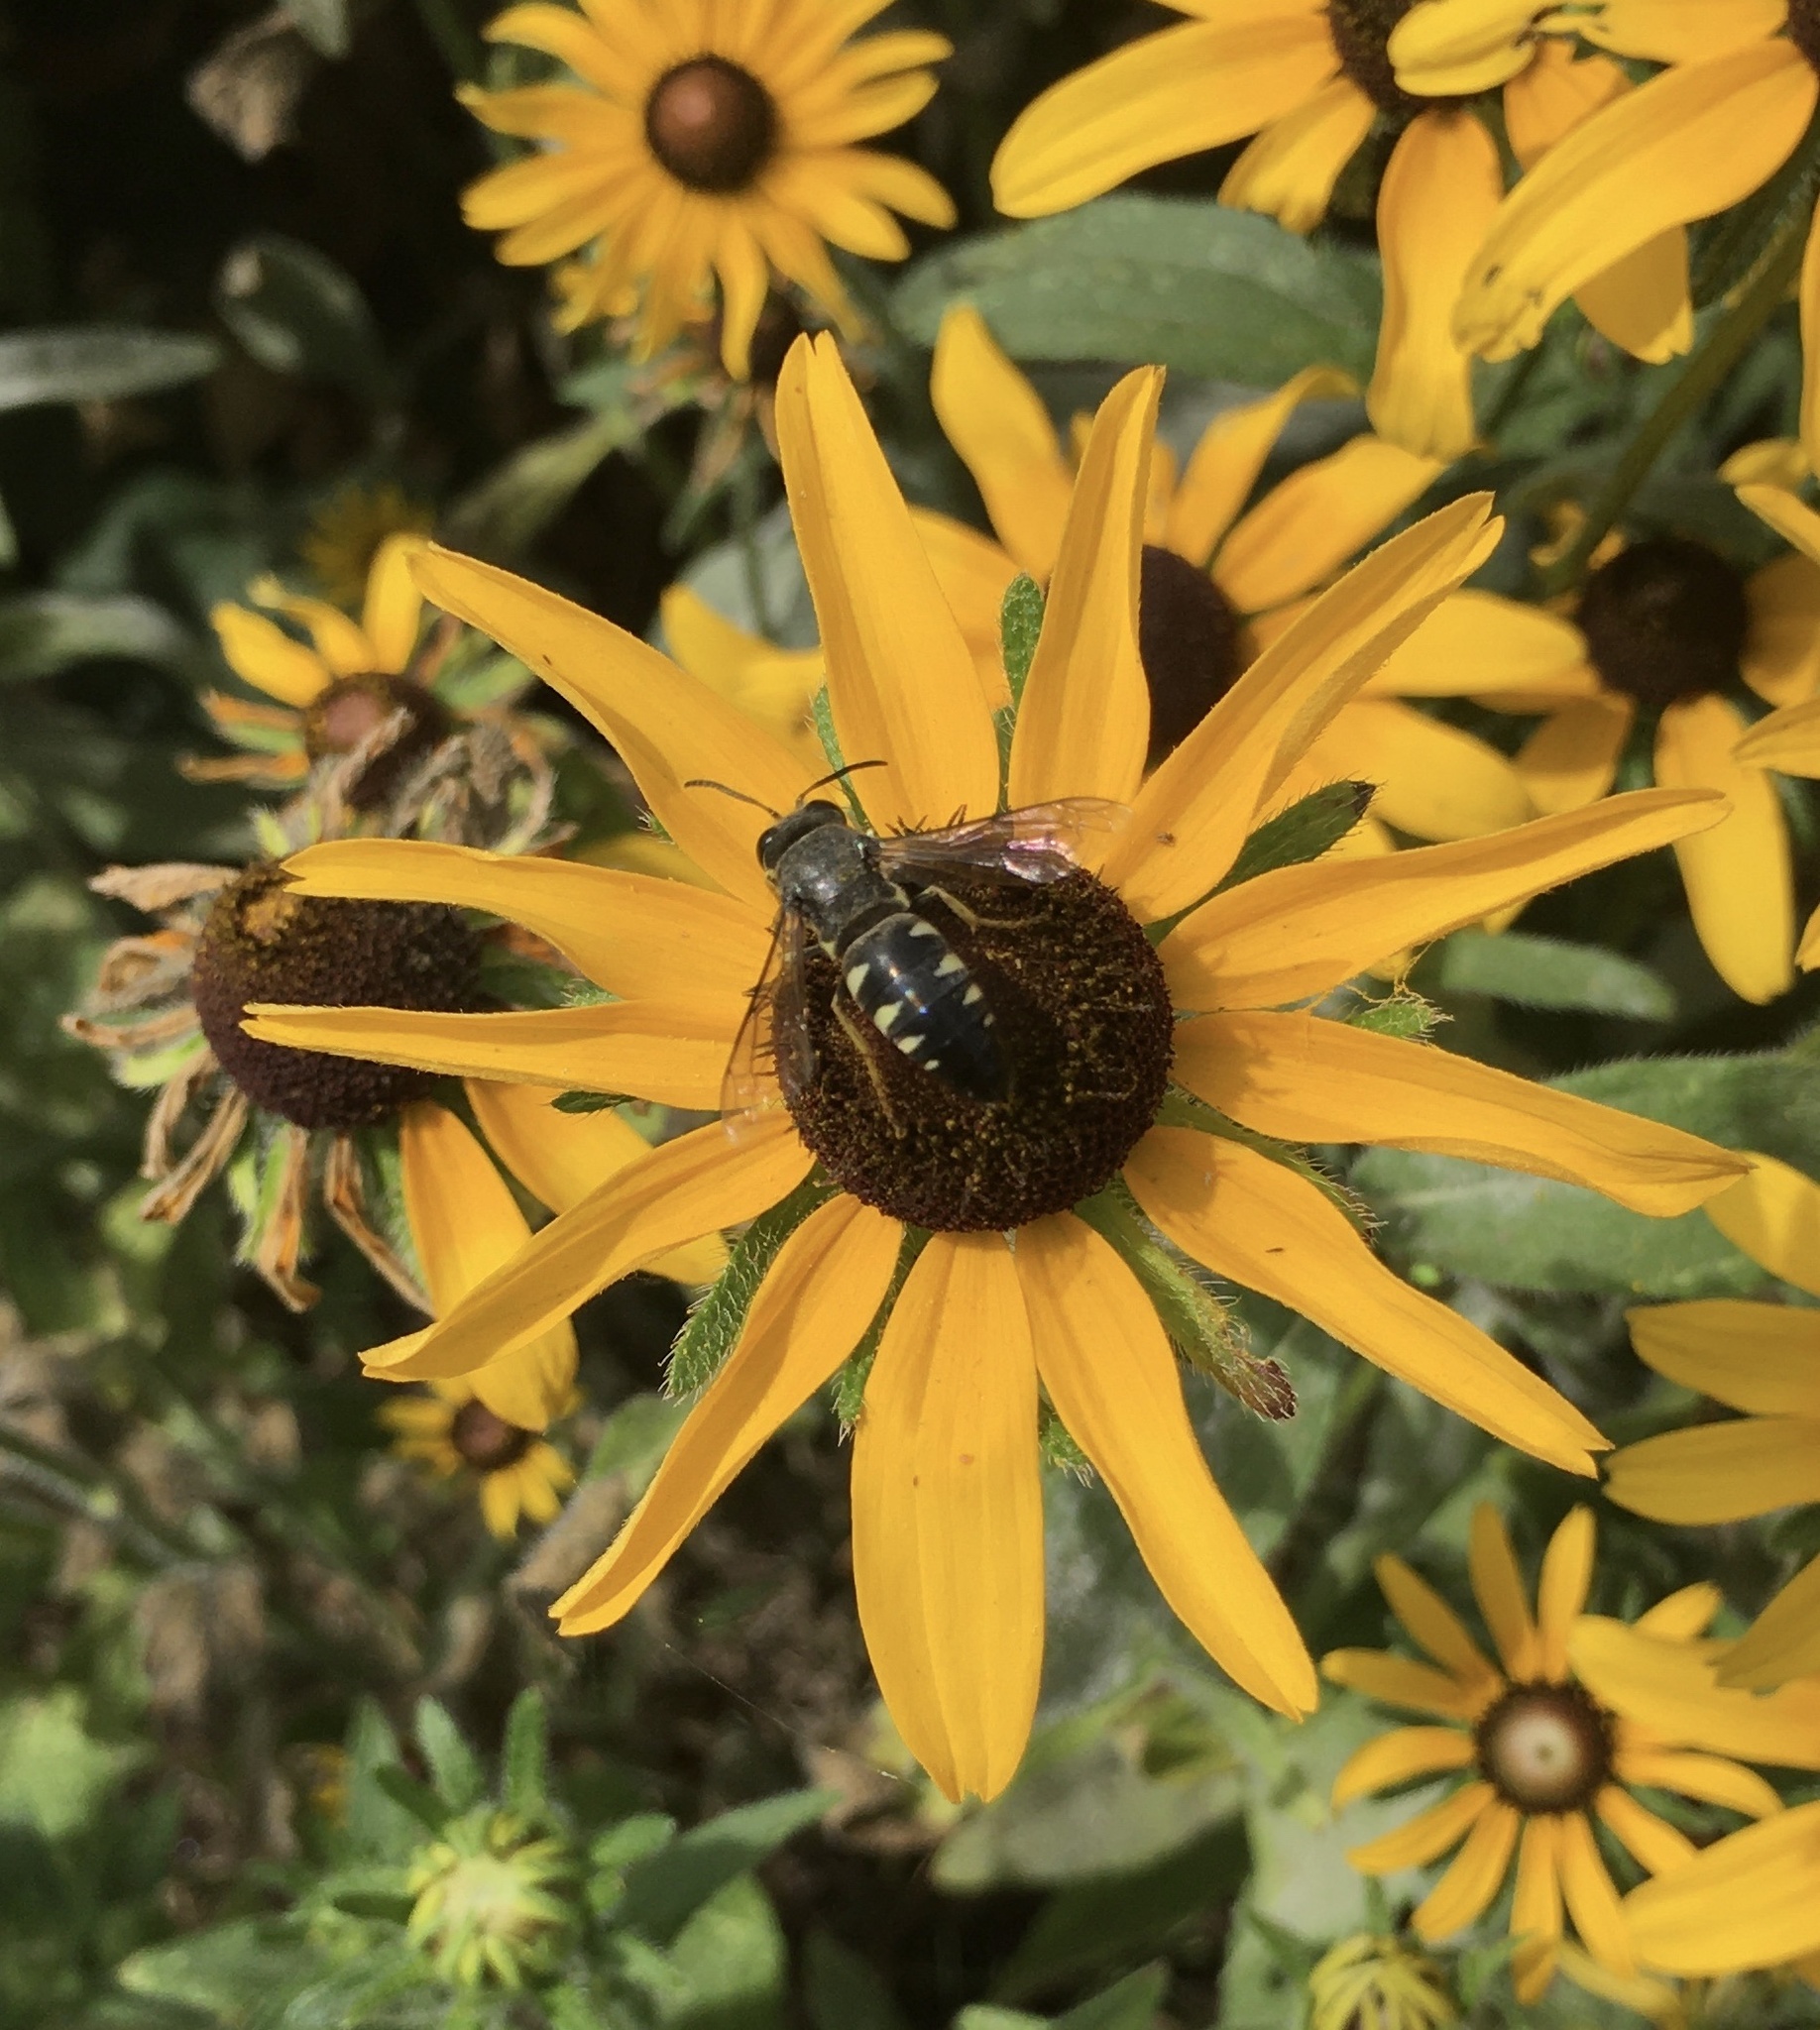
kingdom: Animalia
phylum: Arthropoda
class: Insecta
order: Hymenoptera
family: Crabronidae
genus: Bicyrtes
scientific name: Bicyrtes quadrifasciatus
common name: Four-banded stink bug hunter wasp
